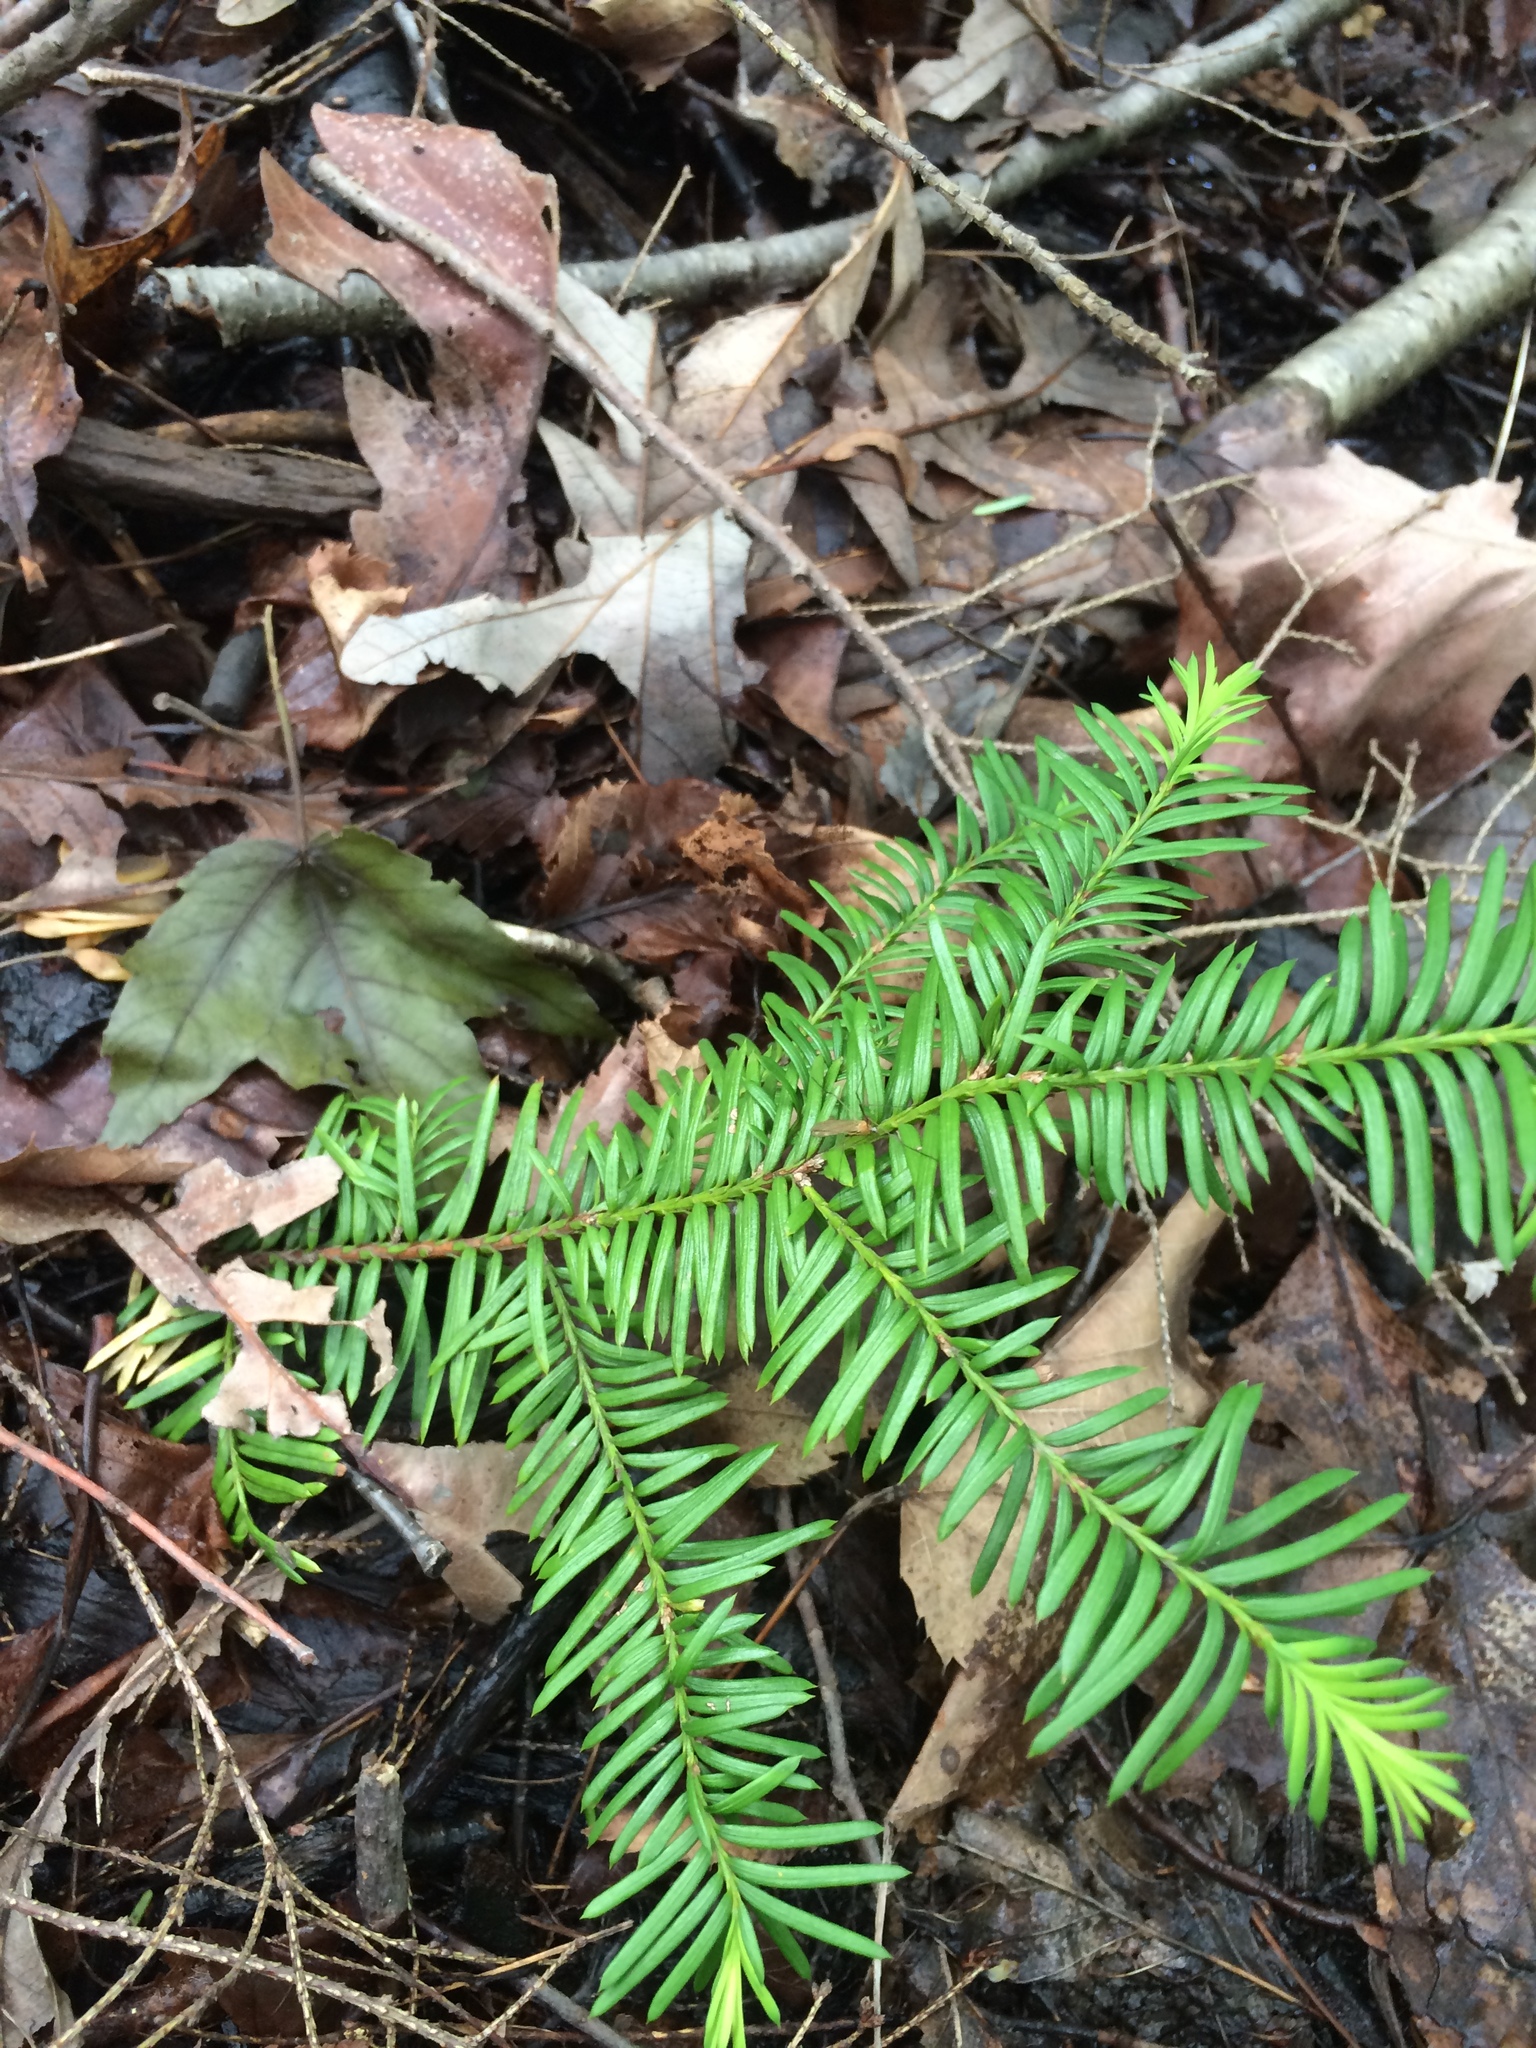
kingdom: Plantae
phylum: Tracheophyta
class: Pinopsida
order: Pinales
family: Taxaceae
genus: Taxus
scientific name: Taxus canadensis
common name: American yew
